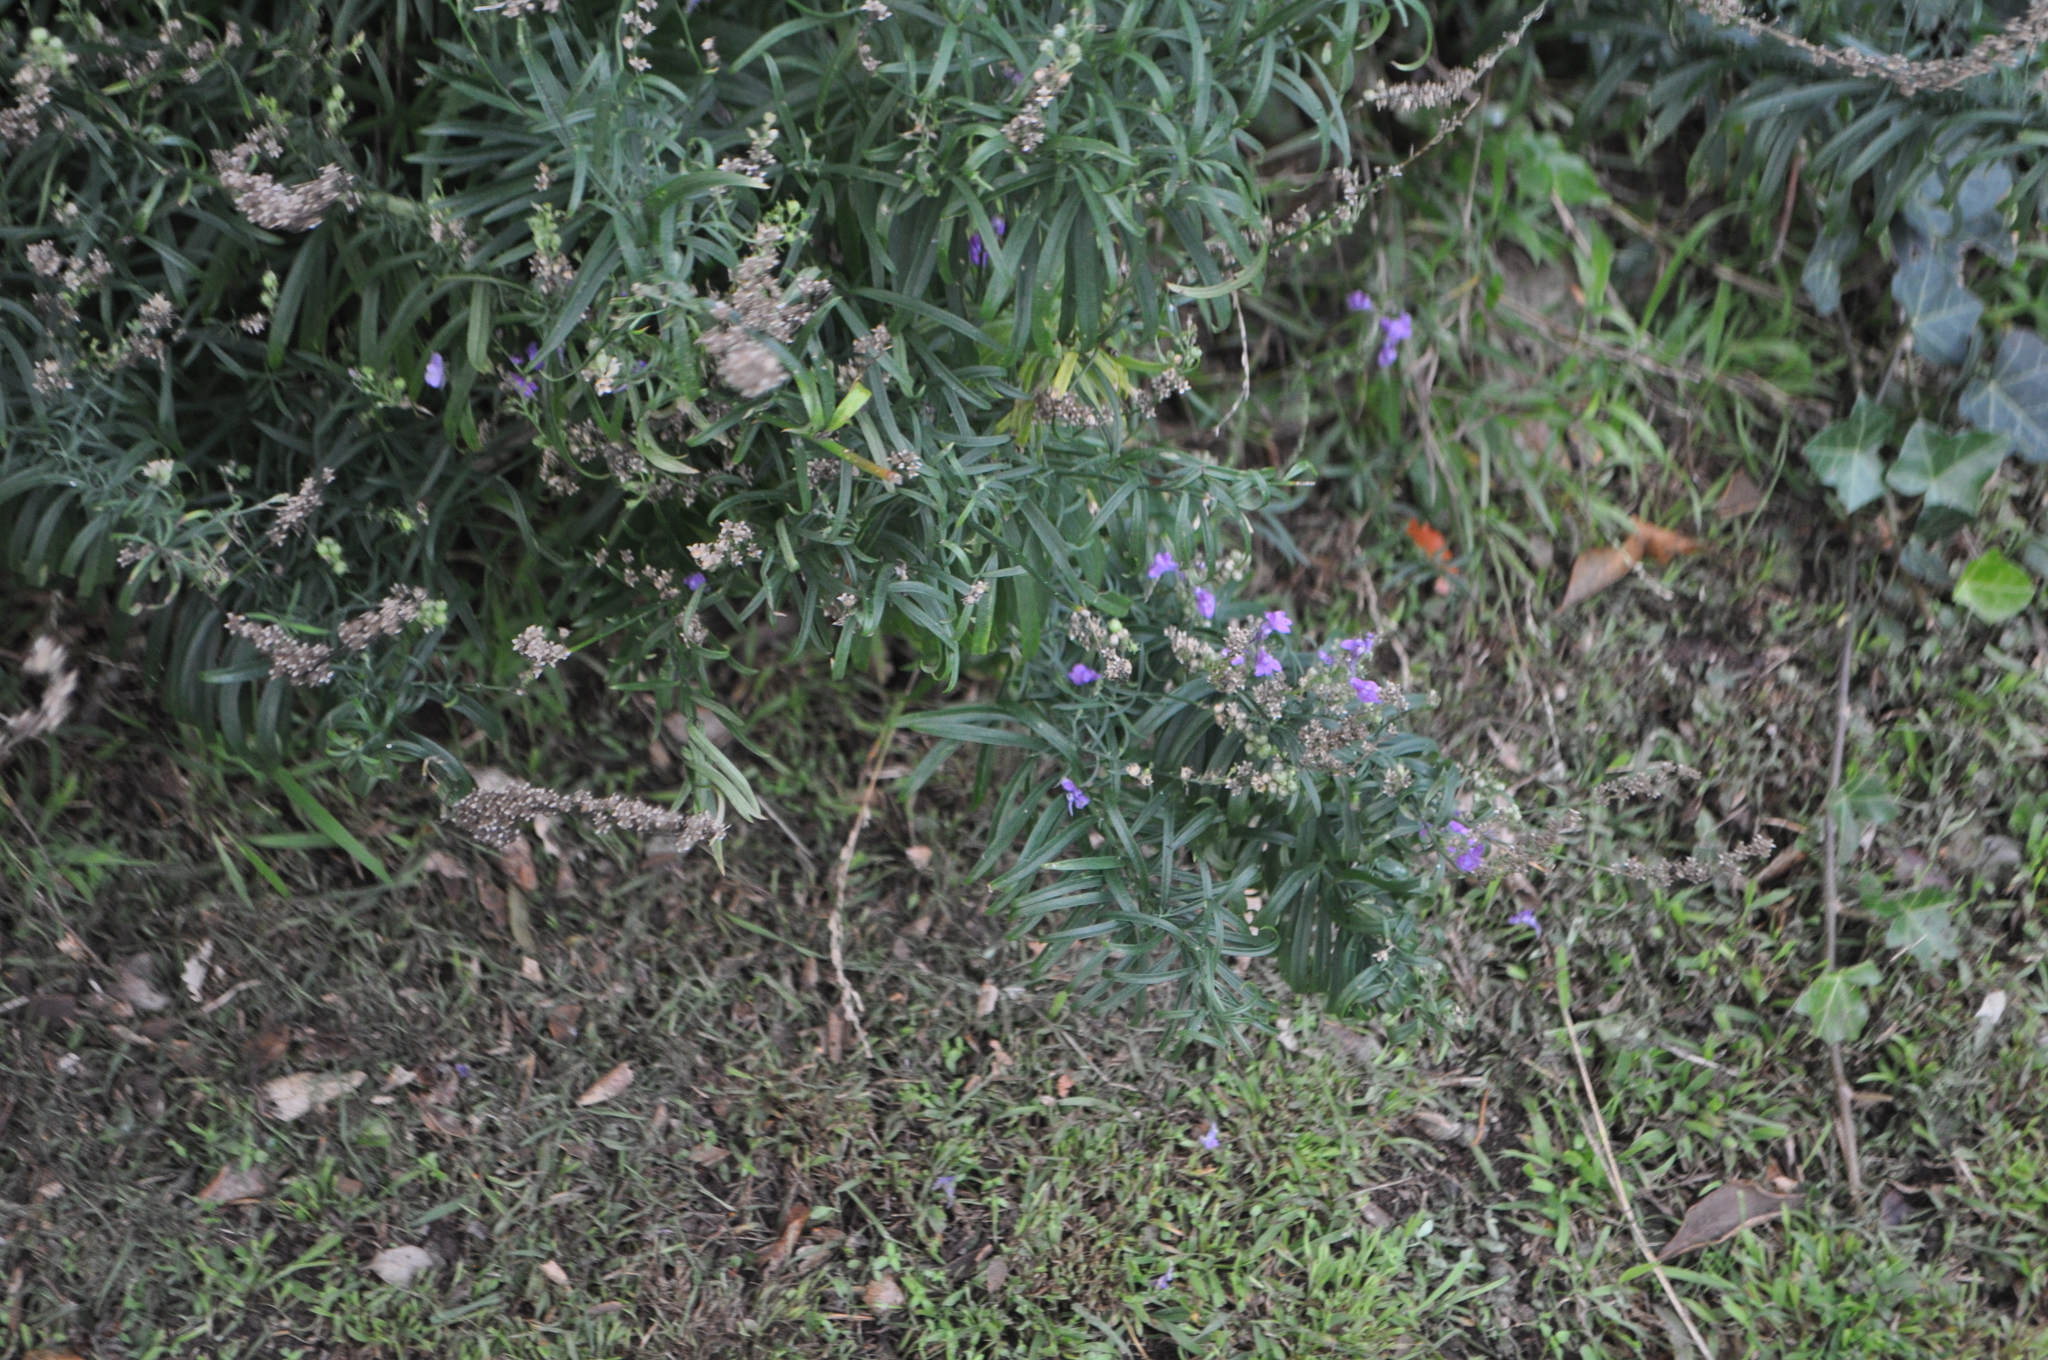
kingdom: Plantae
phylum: Tracheophyta
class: Magnoliopsida
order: Lamiales
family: Plantaginaceae
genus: Linaria
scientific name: Linaria purpurea
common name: Purple toadflax
